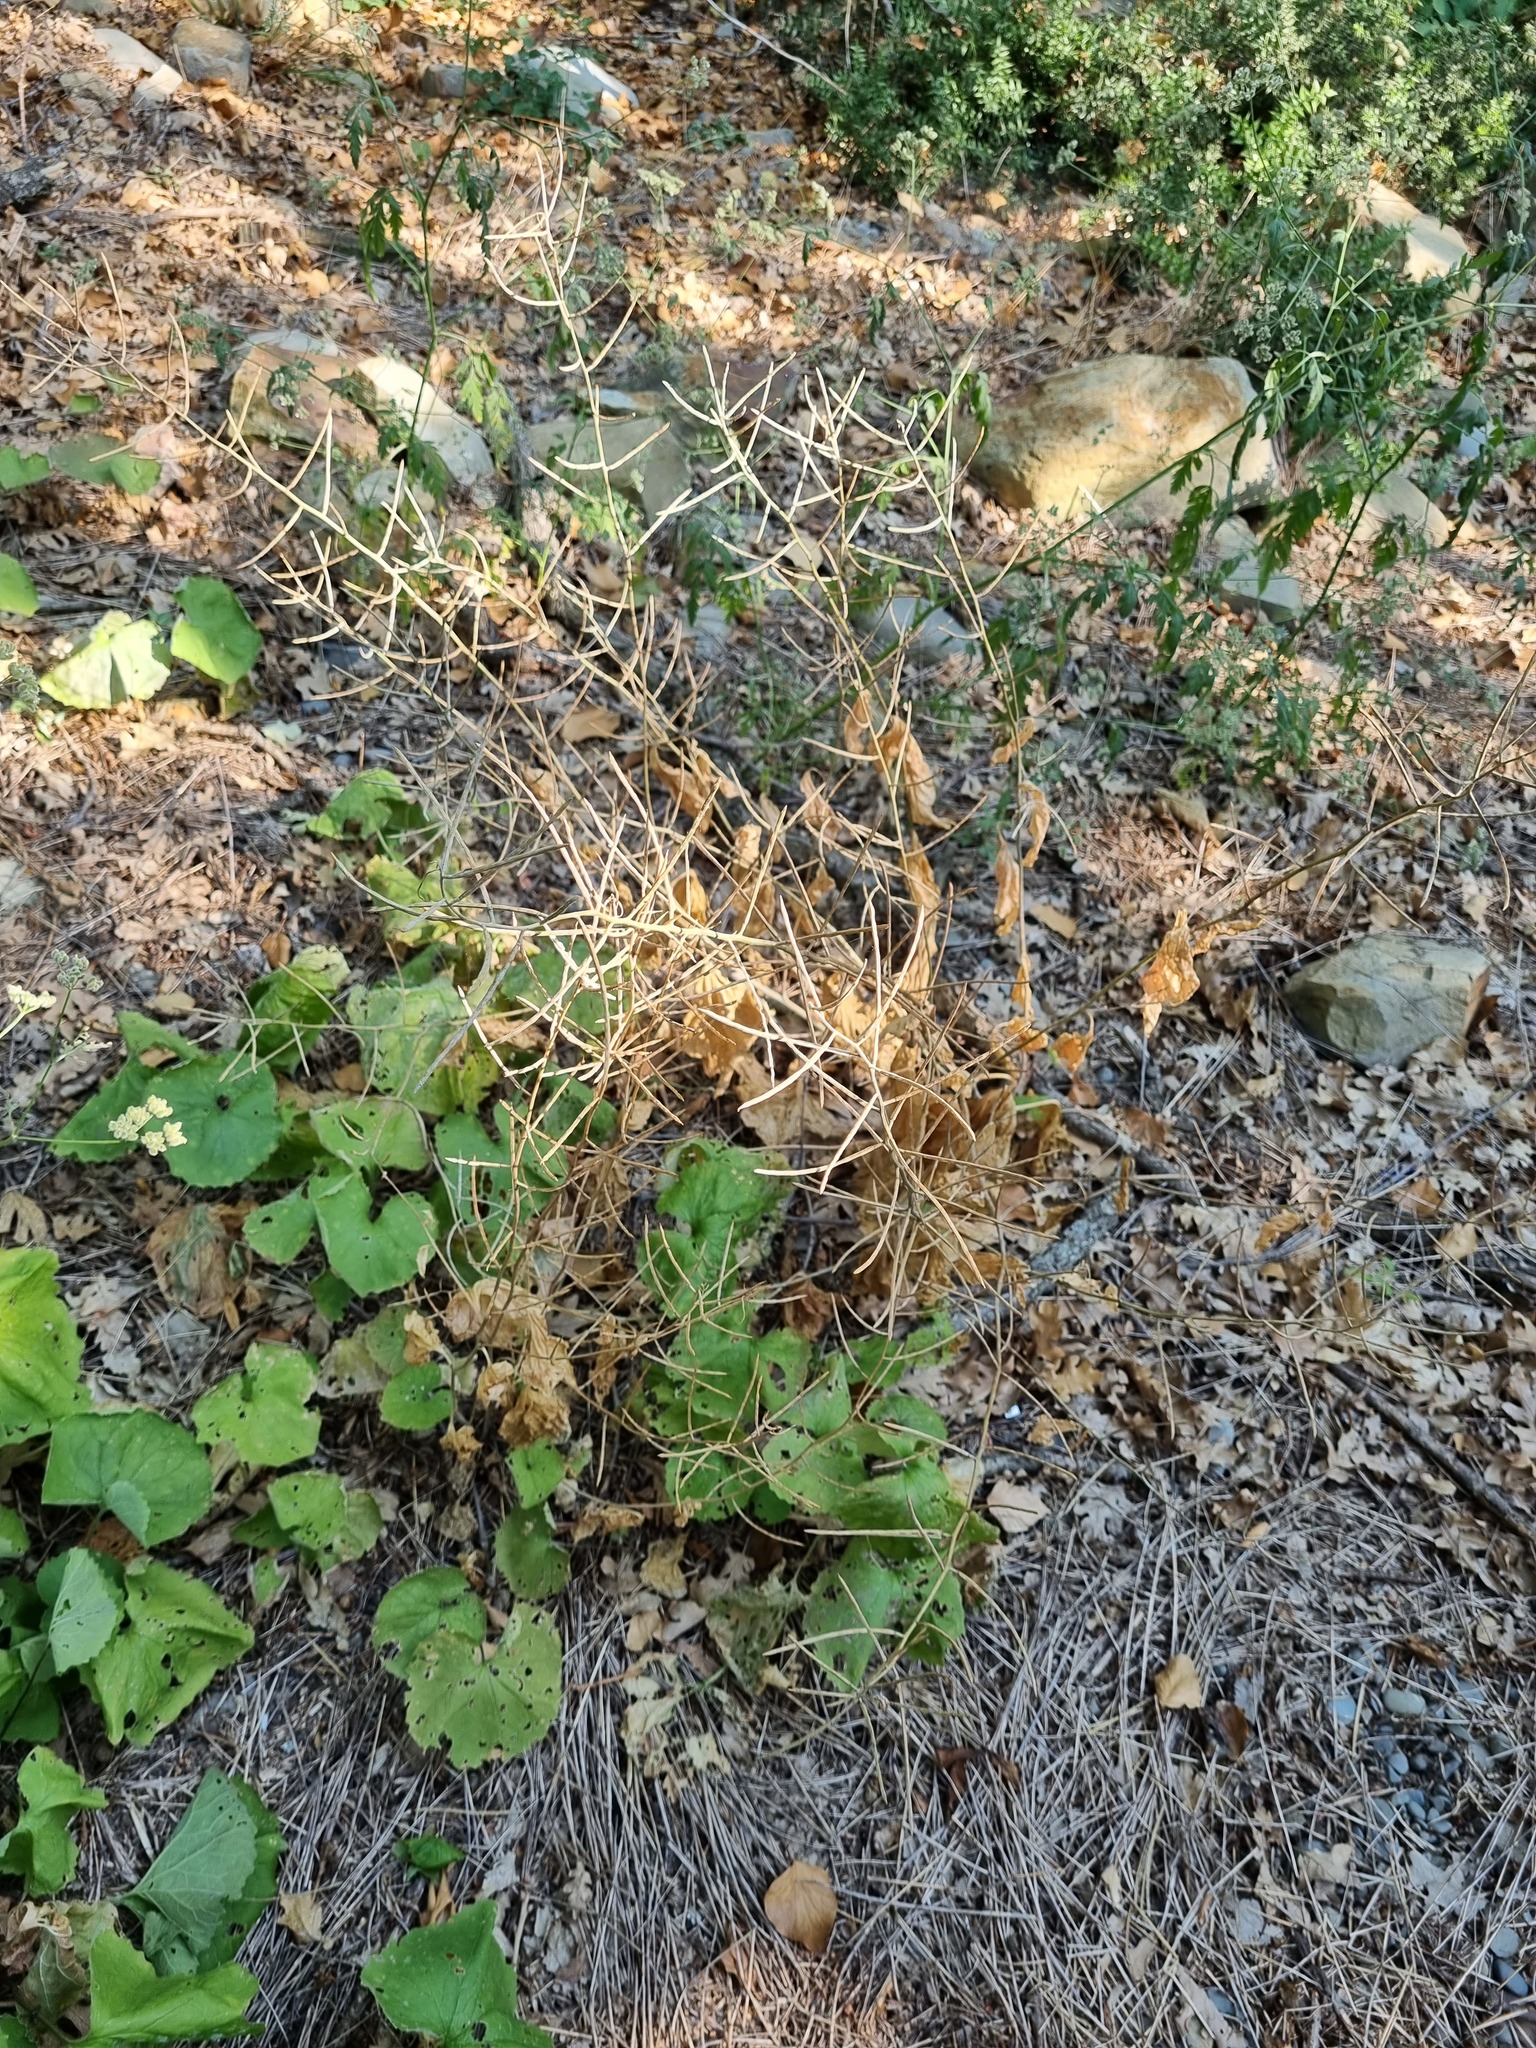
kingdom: Plantae
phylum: Tracheophyta
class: Magnoliopsida
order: Brassicales
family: Brassicaceae
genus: Alliaria
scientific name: Alliaria petiolata
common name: Garlic mustard
